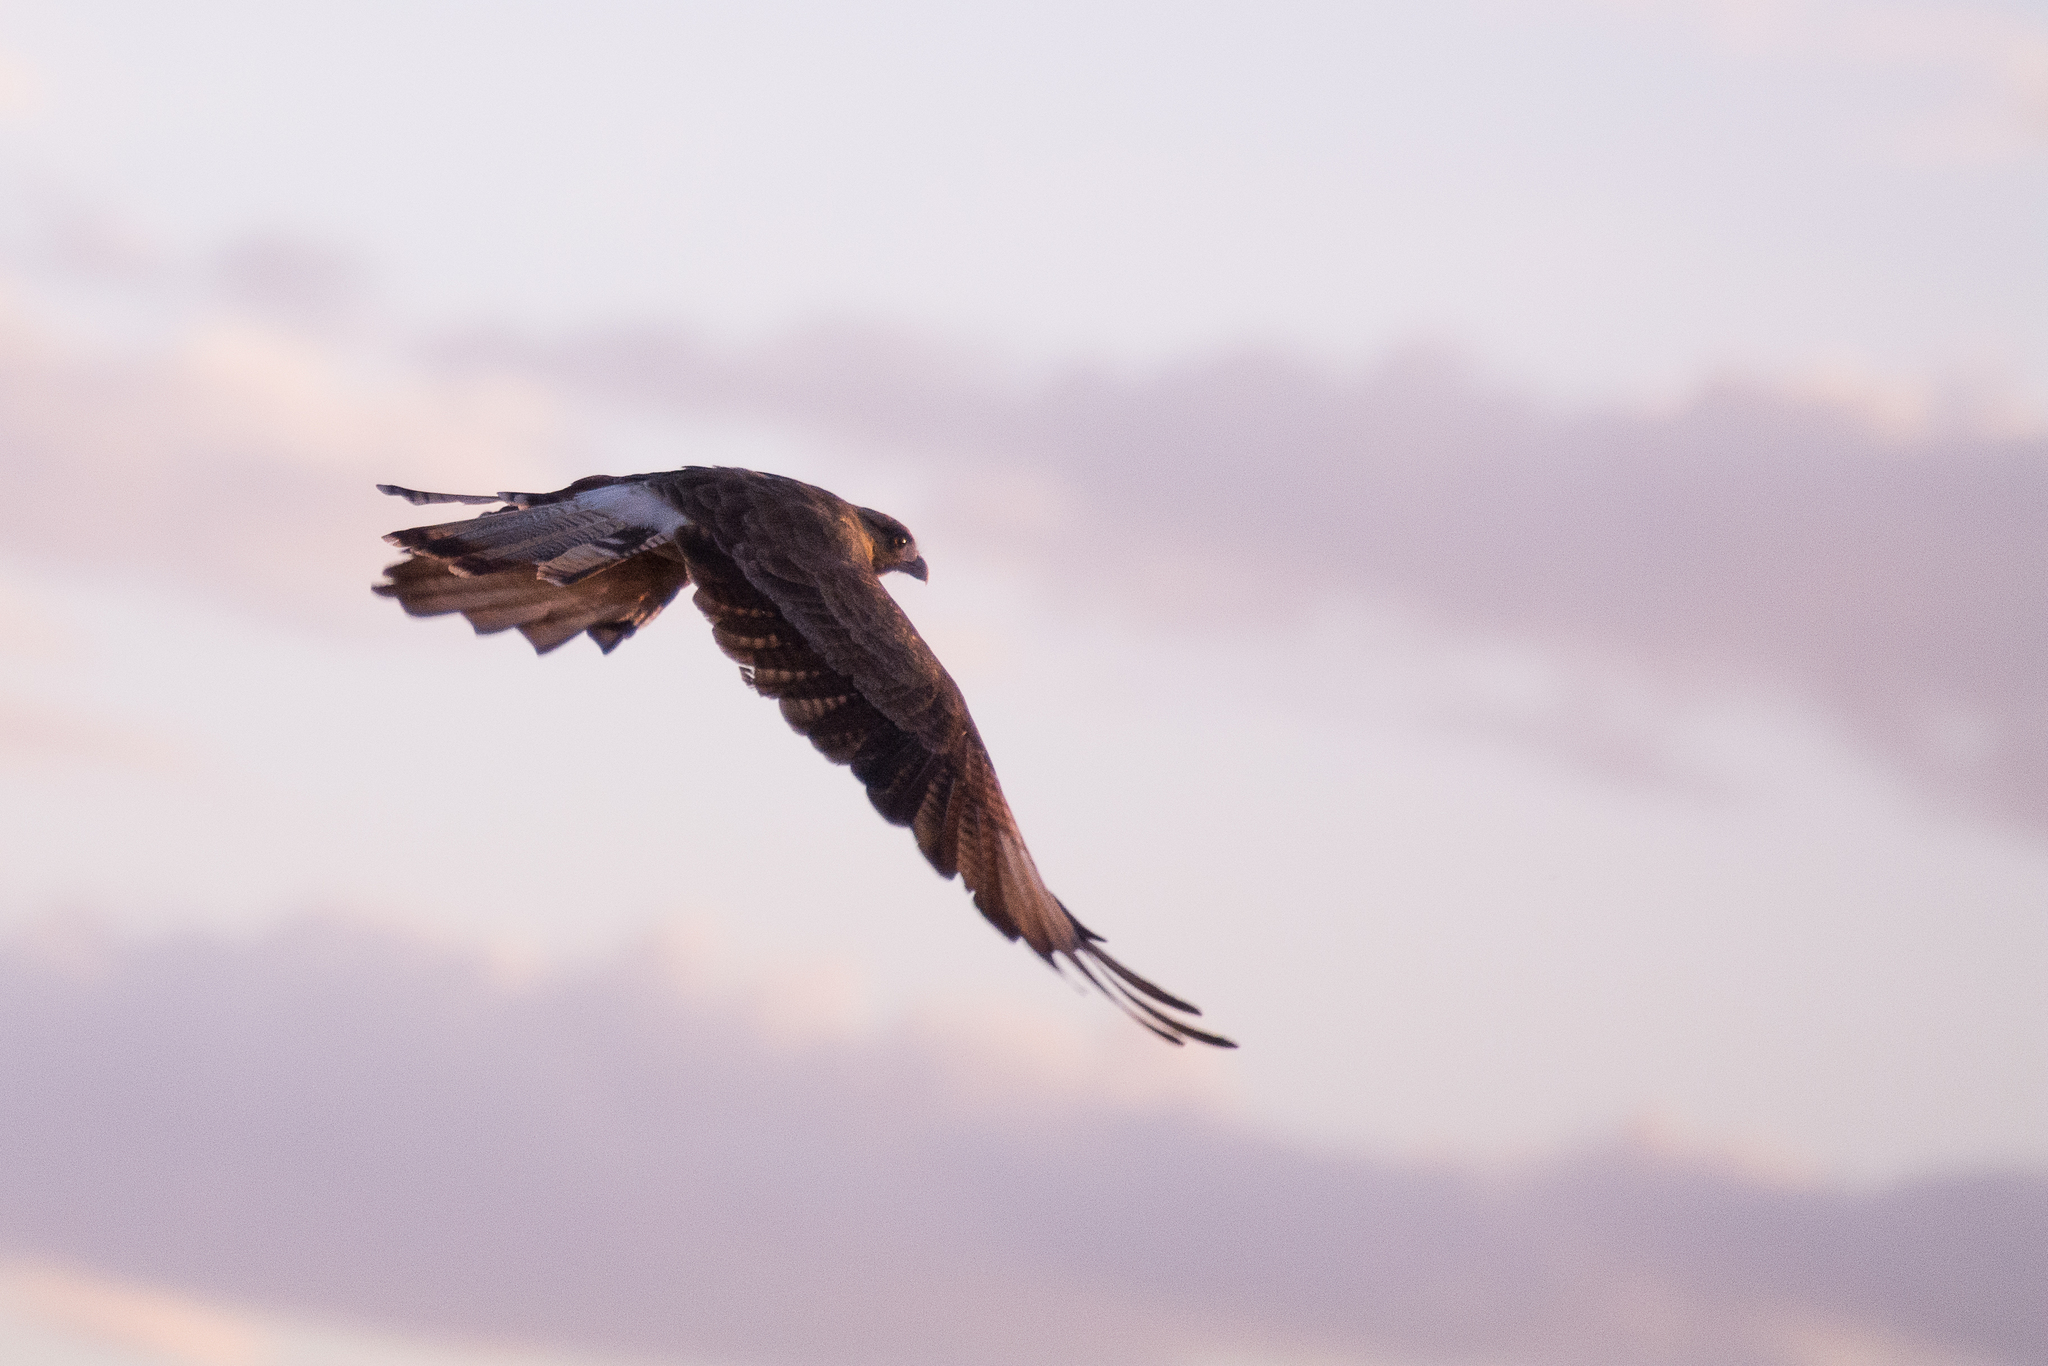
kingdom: Animalia
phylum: Chordata
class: Aves
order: Falconiformes
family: Falconidae
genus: Daptrius
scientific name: Daptrius
